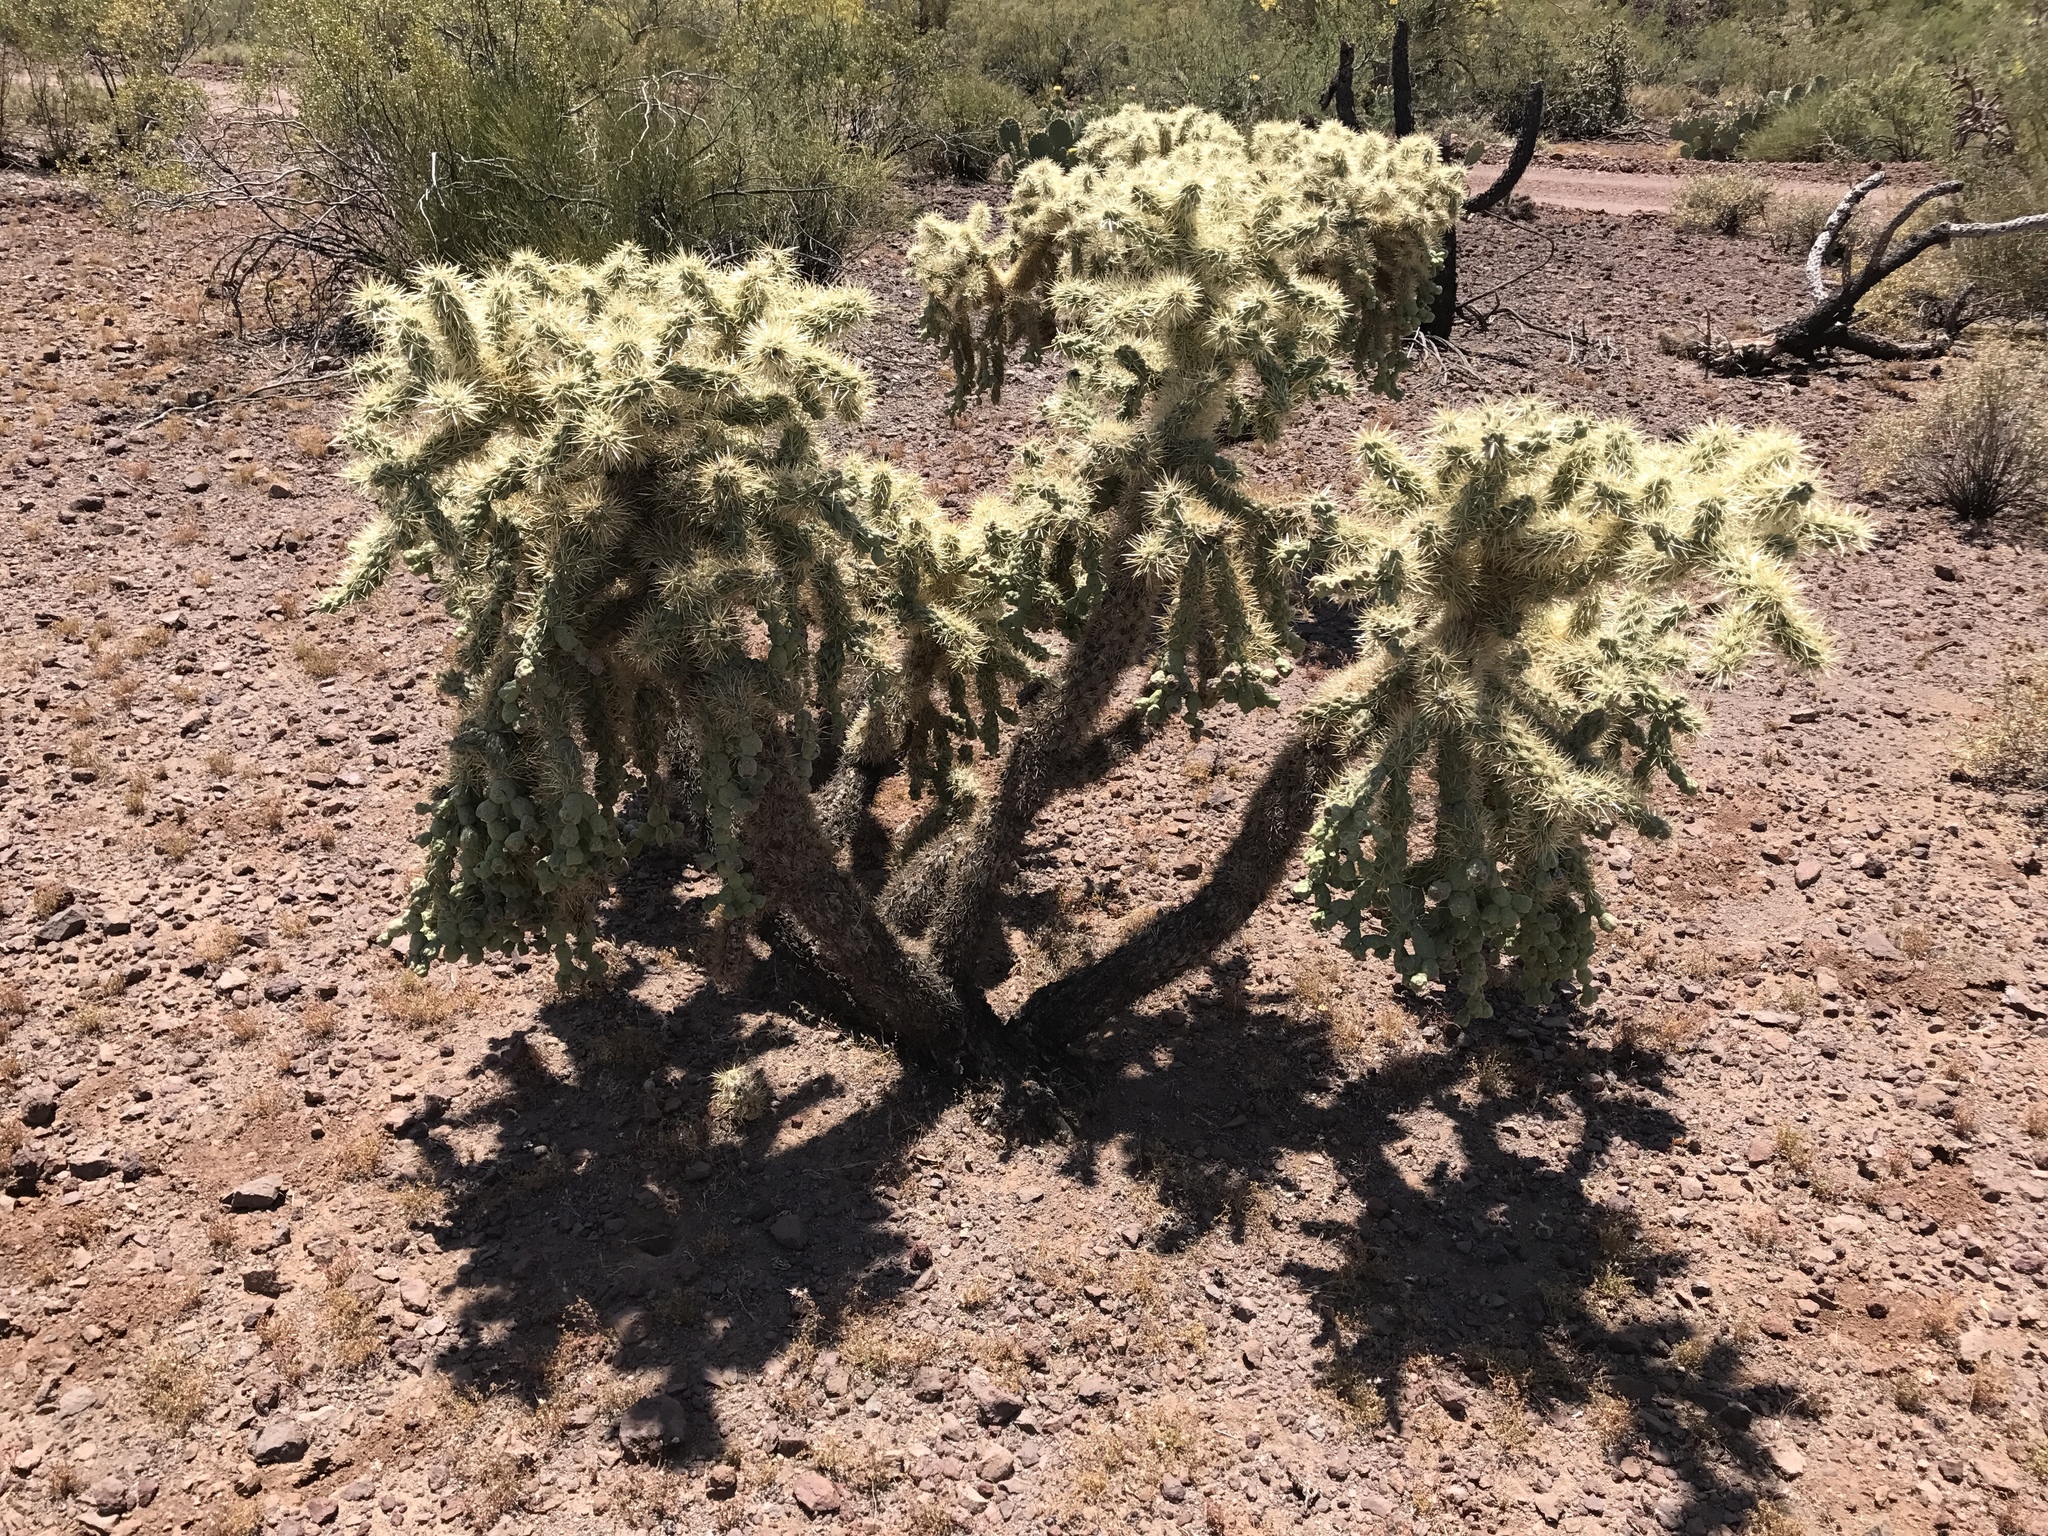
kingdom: Plantae
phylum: Tracheophyta
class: Magnoliopsida
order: Caryophyllales
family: Cactaceae
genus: Cylindropuntia
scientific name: Cylindropuntia fulgida
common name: Jumping cholla
